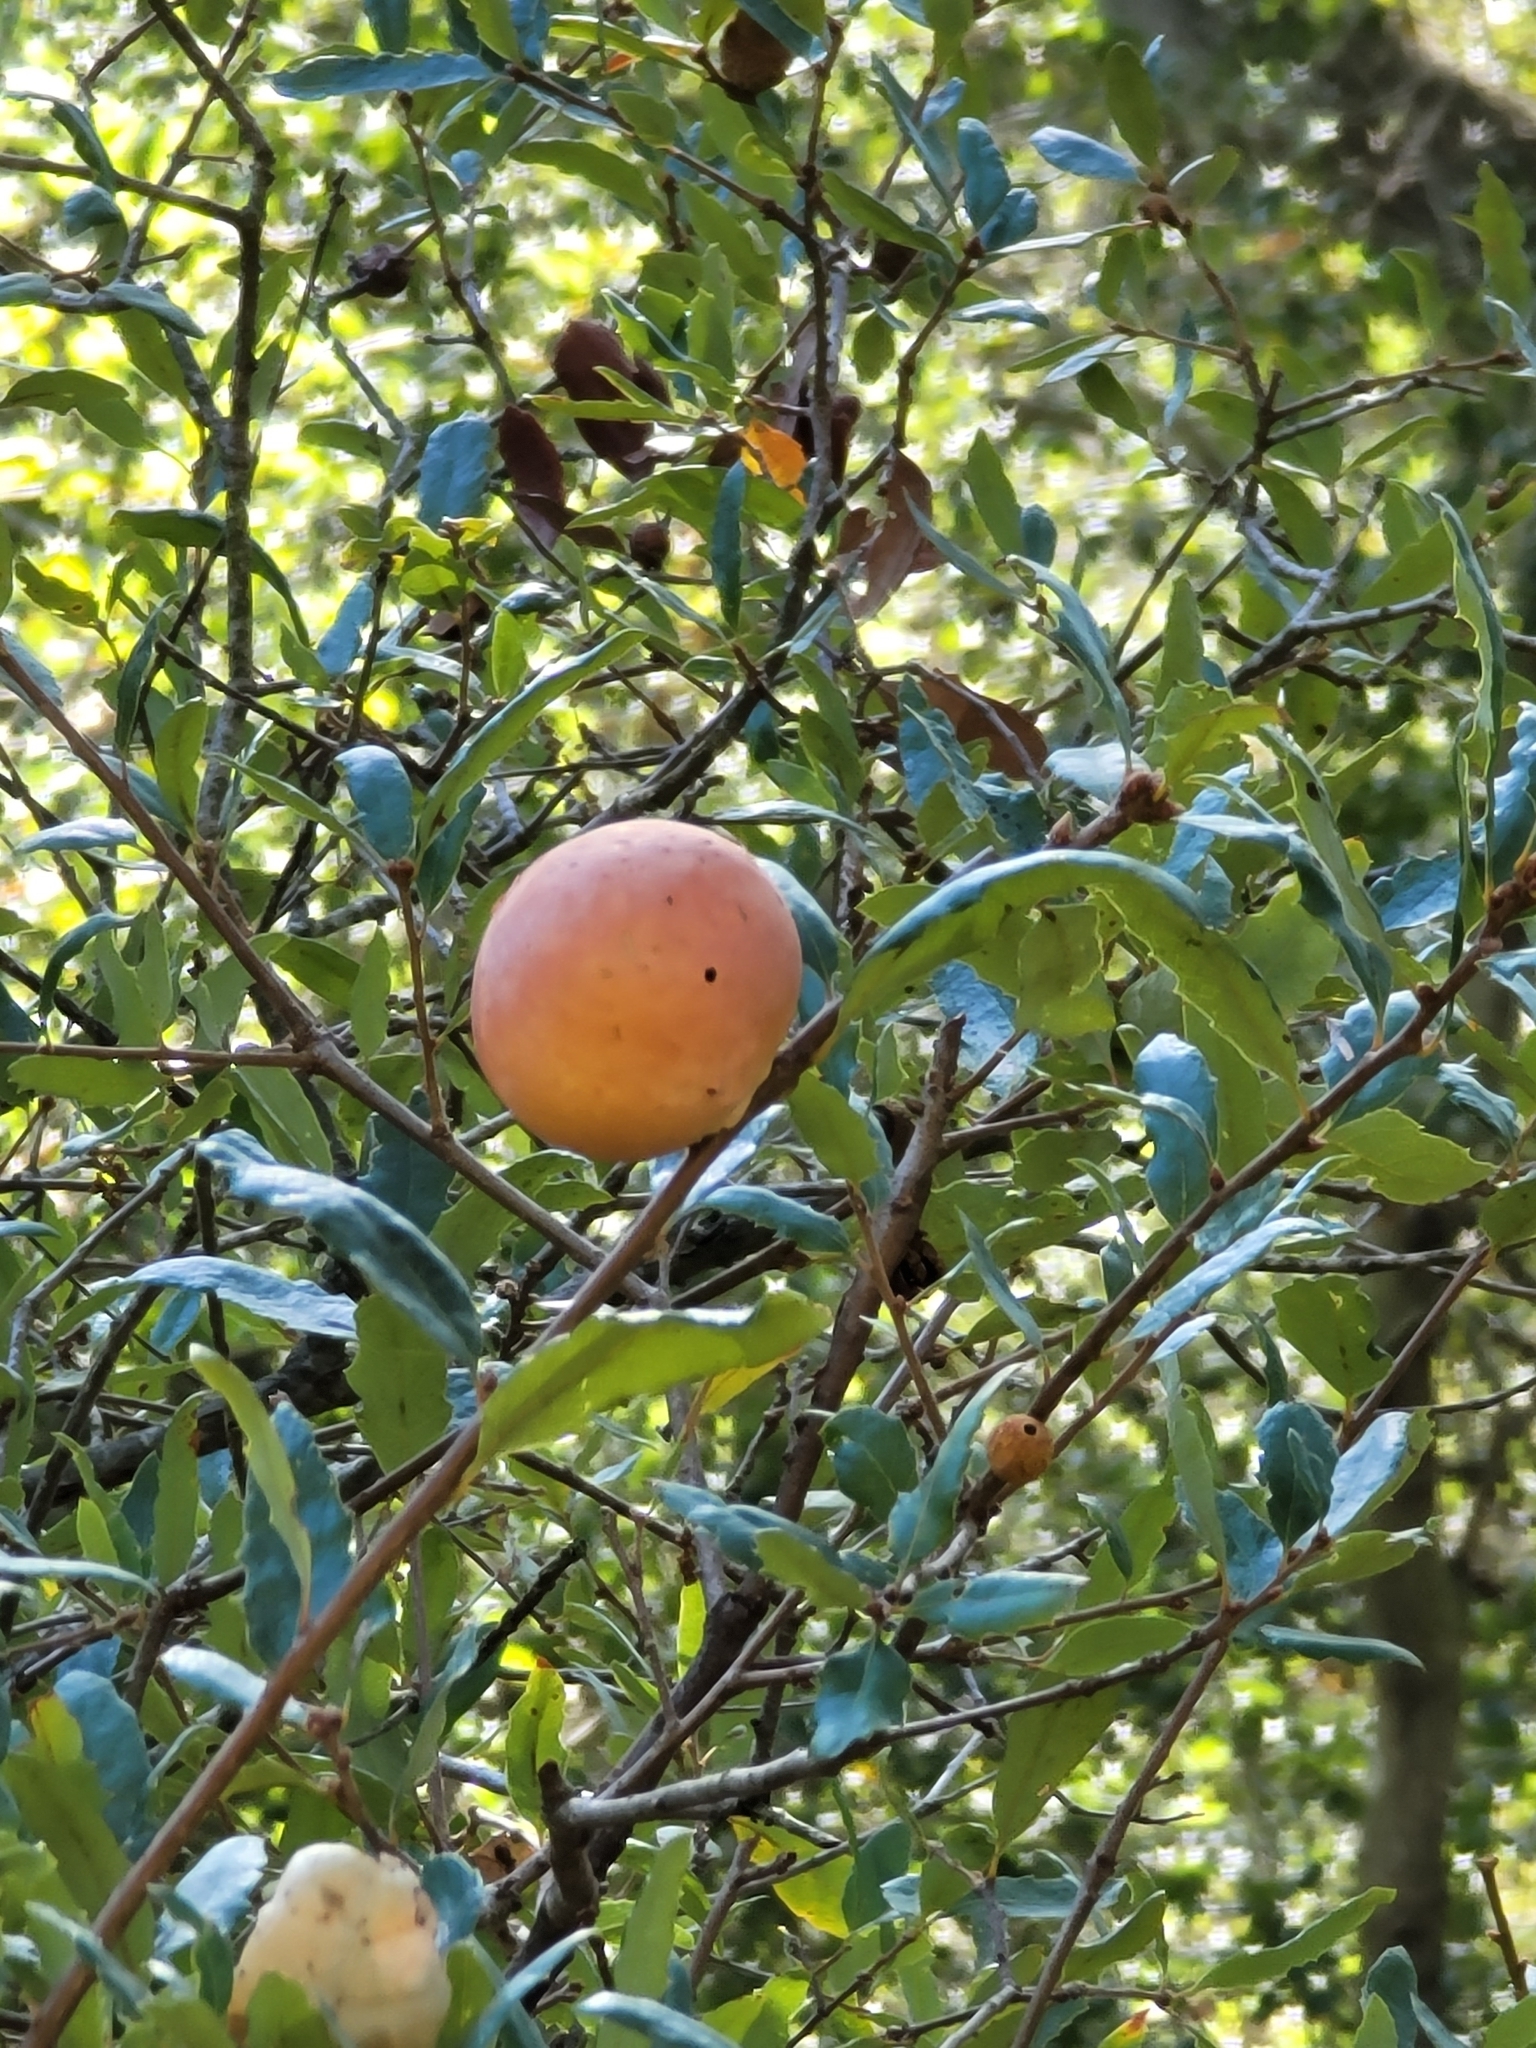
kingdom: Animalia
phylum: Arthropoda
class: Insecta
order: Hymenoptera
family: Cynipidae
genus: Andricus
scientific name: Andricus quercuscalifornicus
